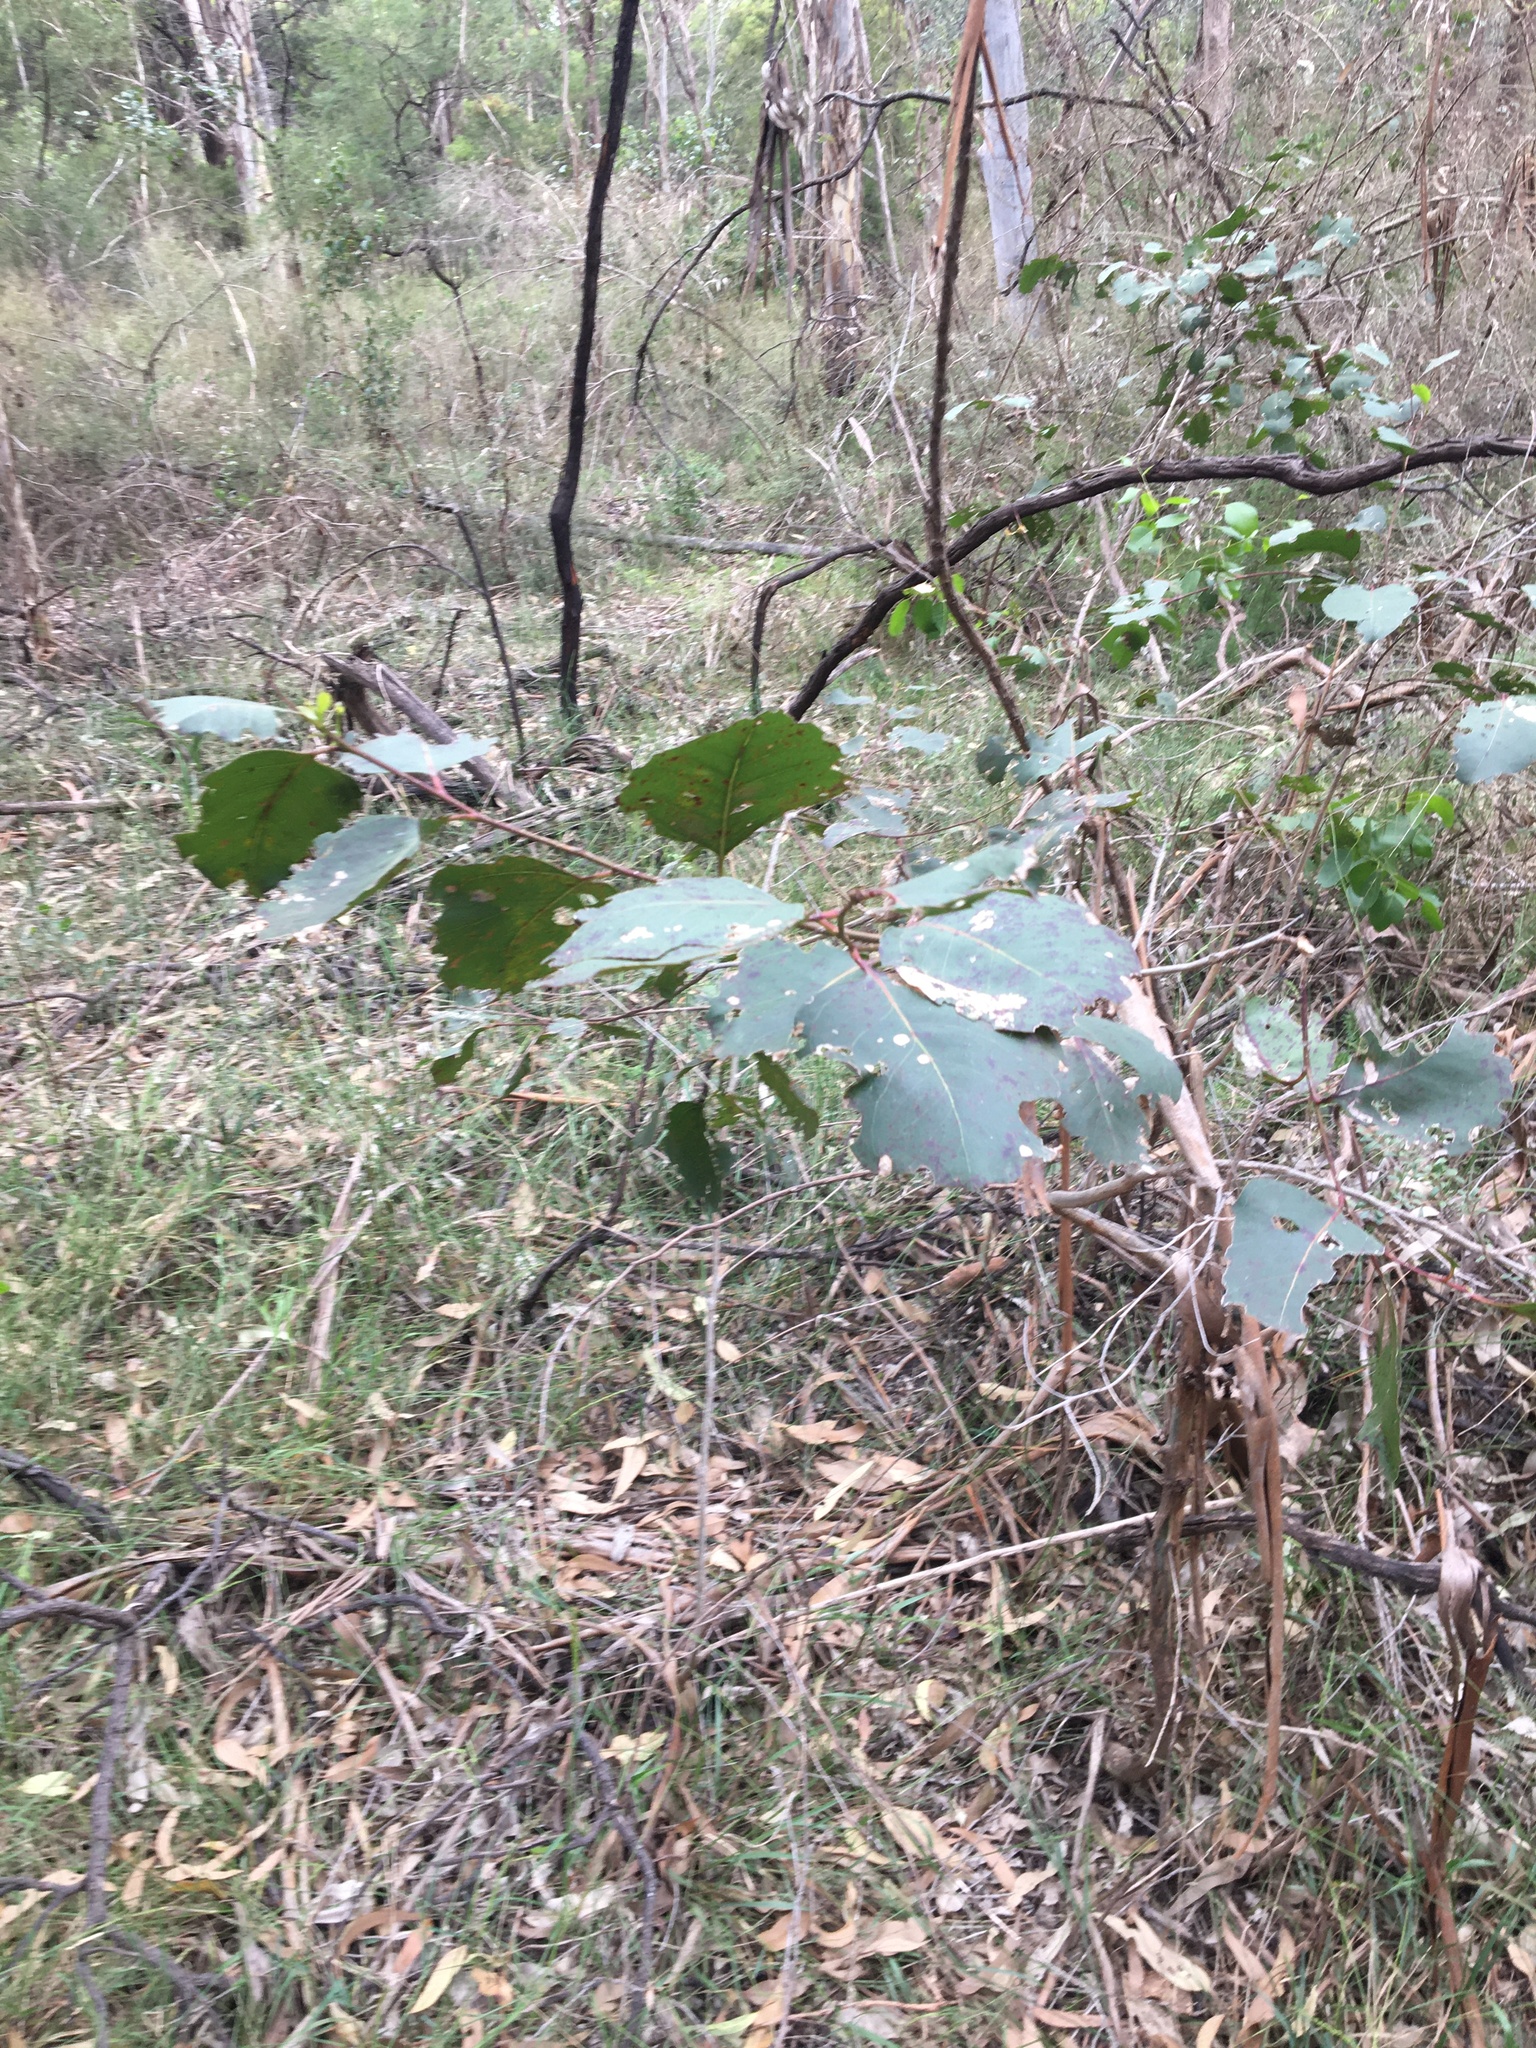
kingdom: Plantae
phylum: Tracheophyta
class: Magnoliopsida
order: Myrtales
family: Myrtaceae
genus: Eucalyptus
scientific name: Eucalyptus amplifolia
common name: Cabbage gum
